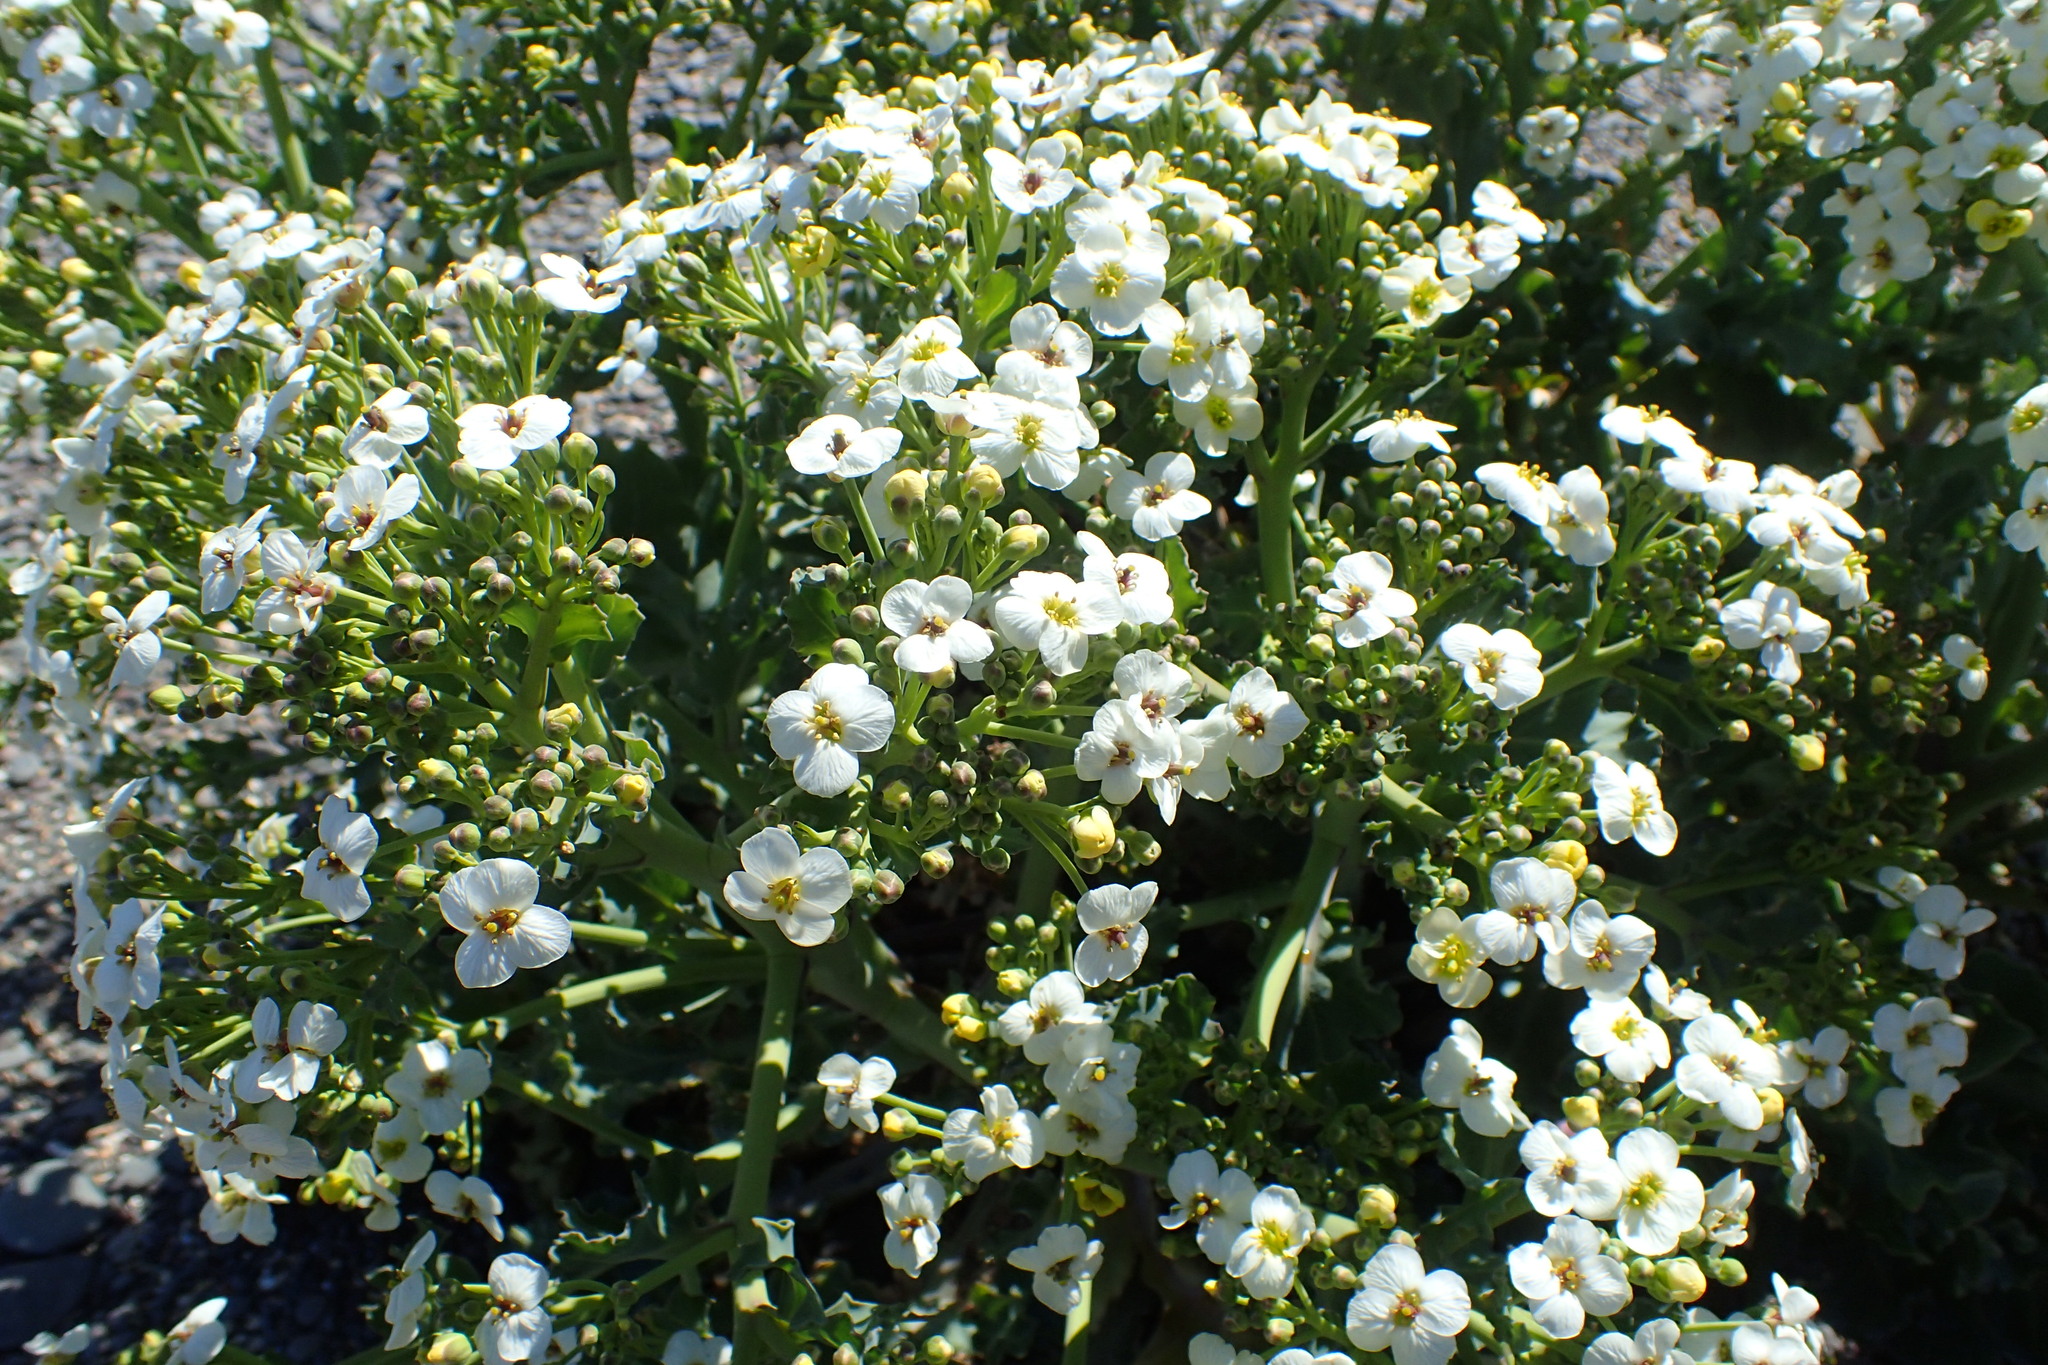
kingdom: Plantae
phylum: Tracheophyta
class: Magnoliopsida
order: Brassicales
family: Brassicaceae
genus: Crambe
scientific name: Crambe maritima
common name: Sea-kale
